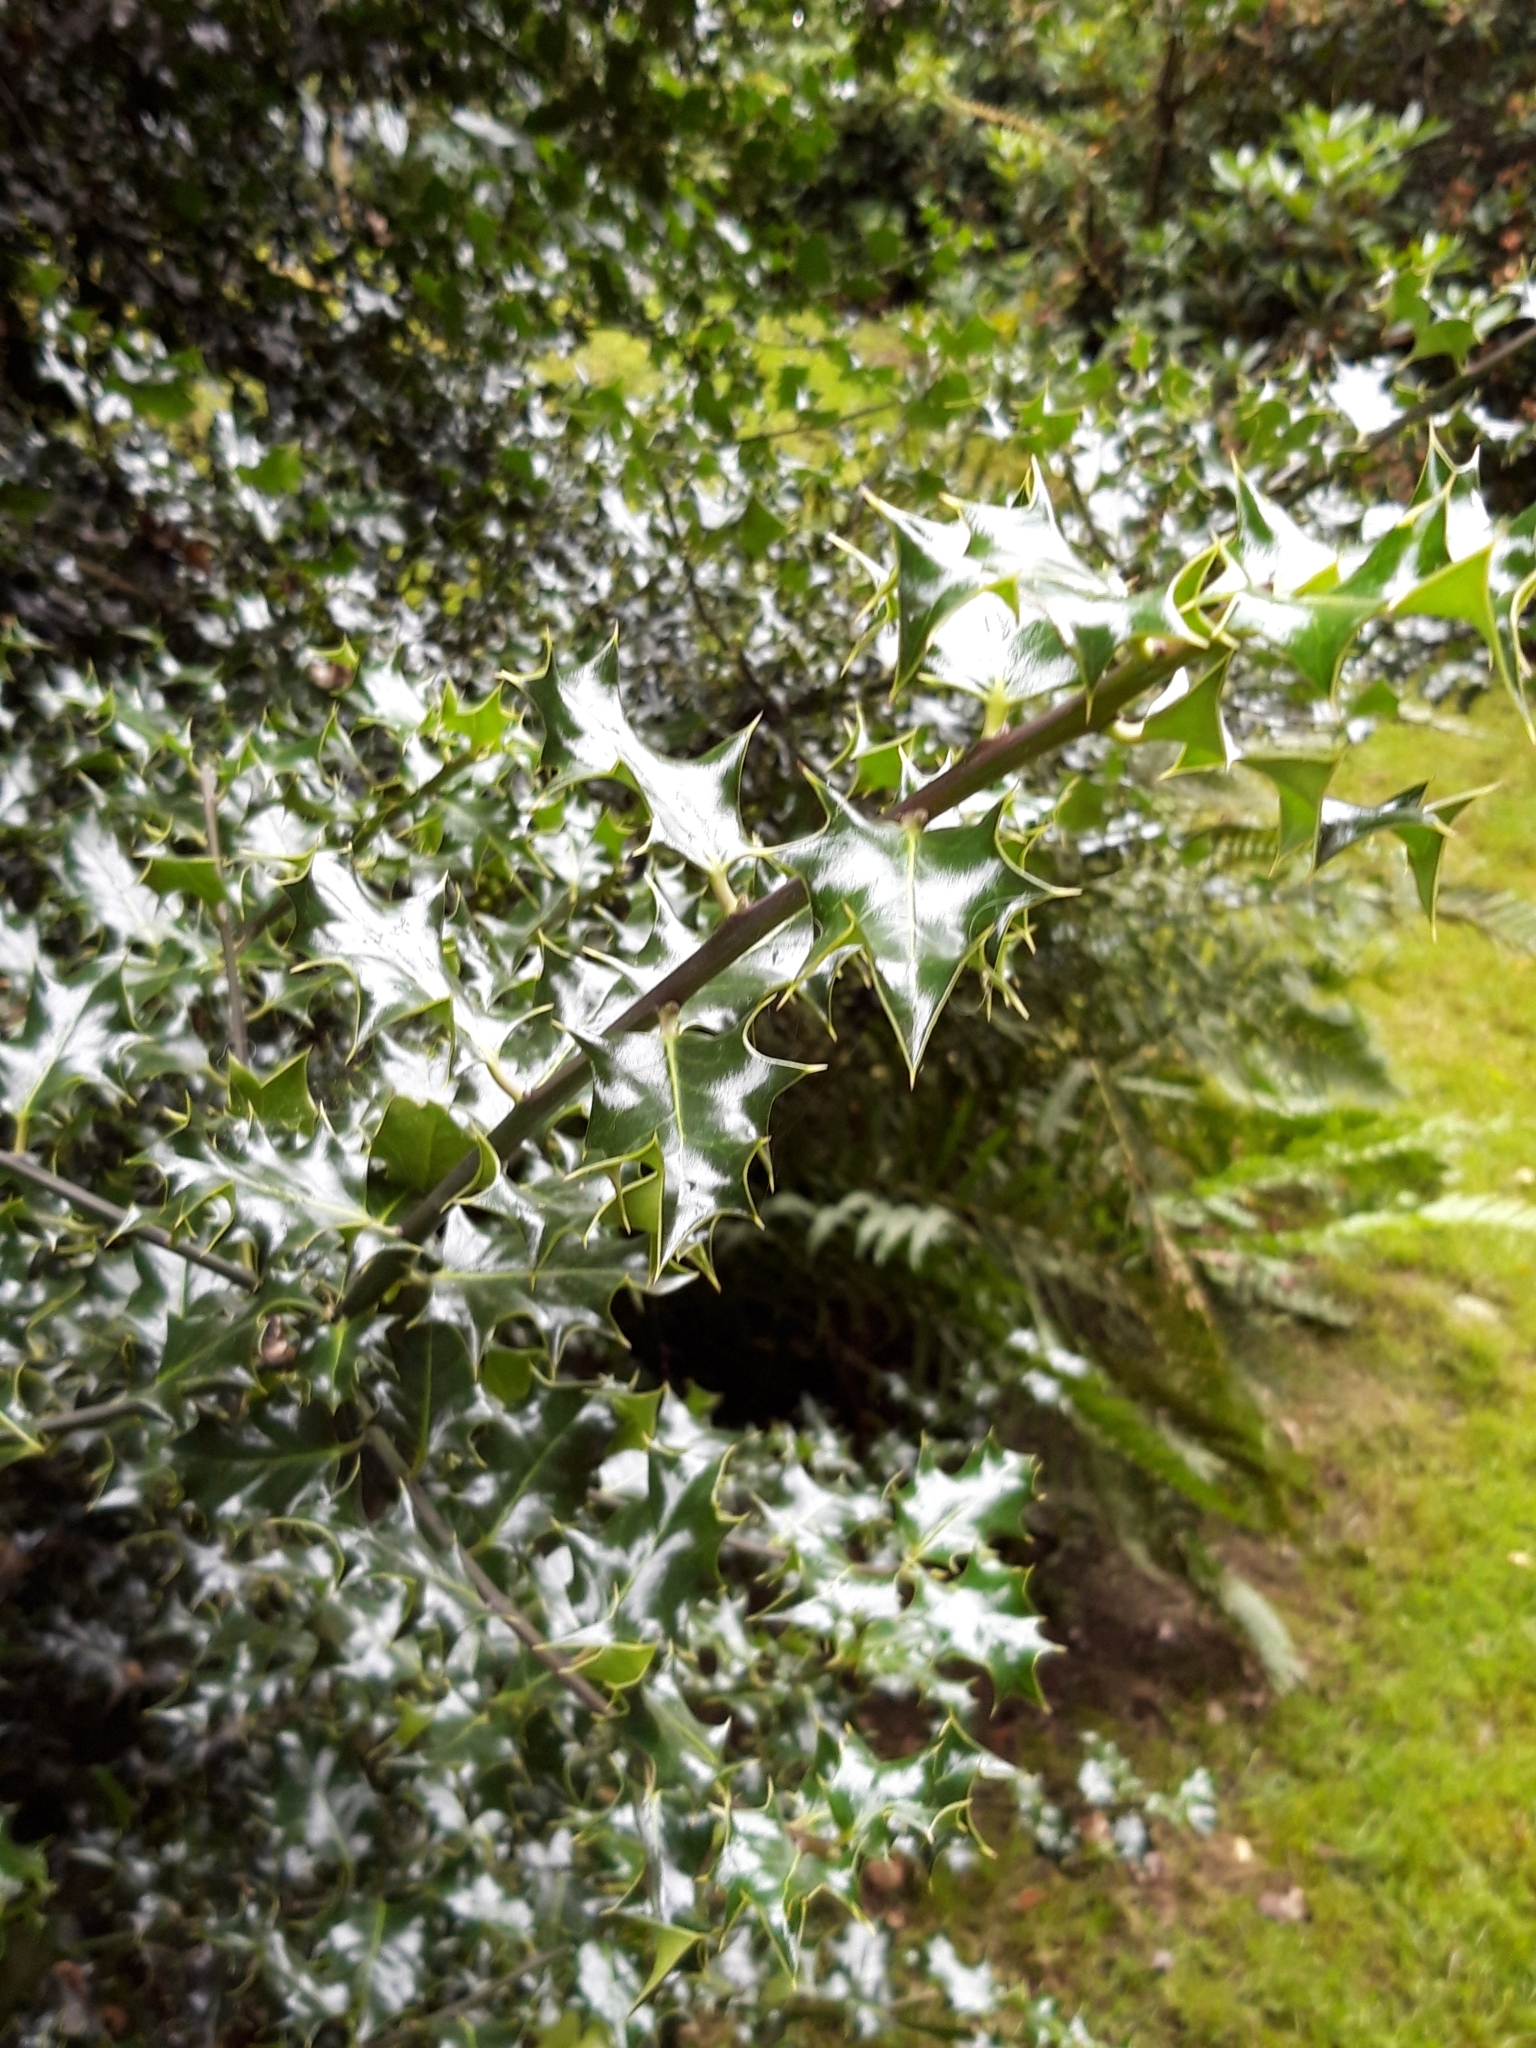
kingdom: Plantae
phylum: Tracheophyta
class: Magnoliopsida
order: Aquifoliales
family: Aquifoliaceae
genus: Ilex
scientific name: Ilex aquifolium
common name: English holly
